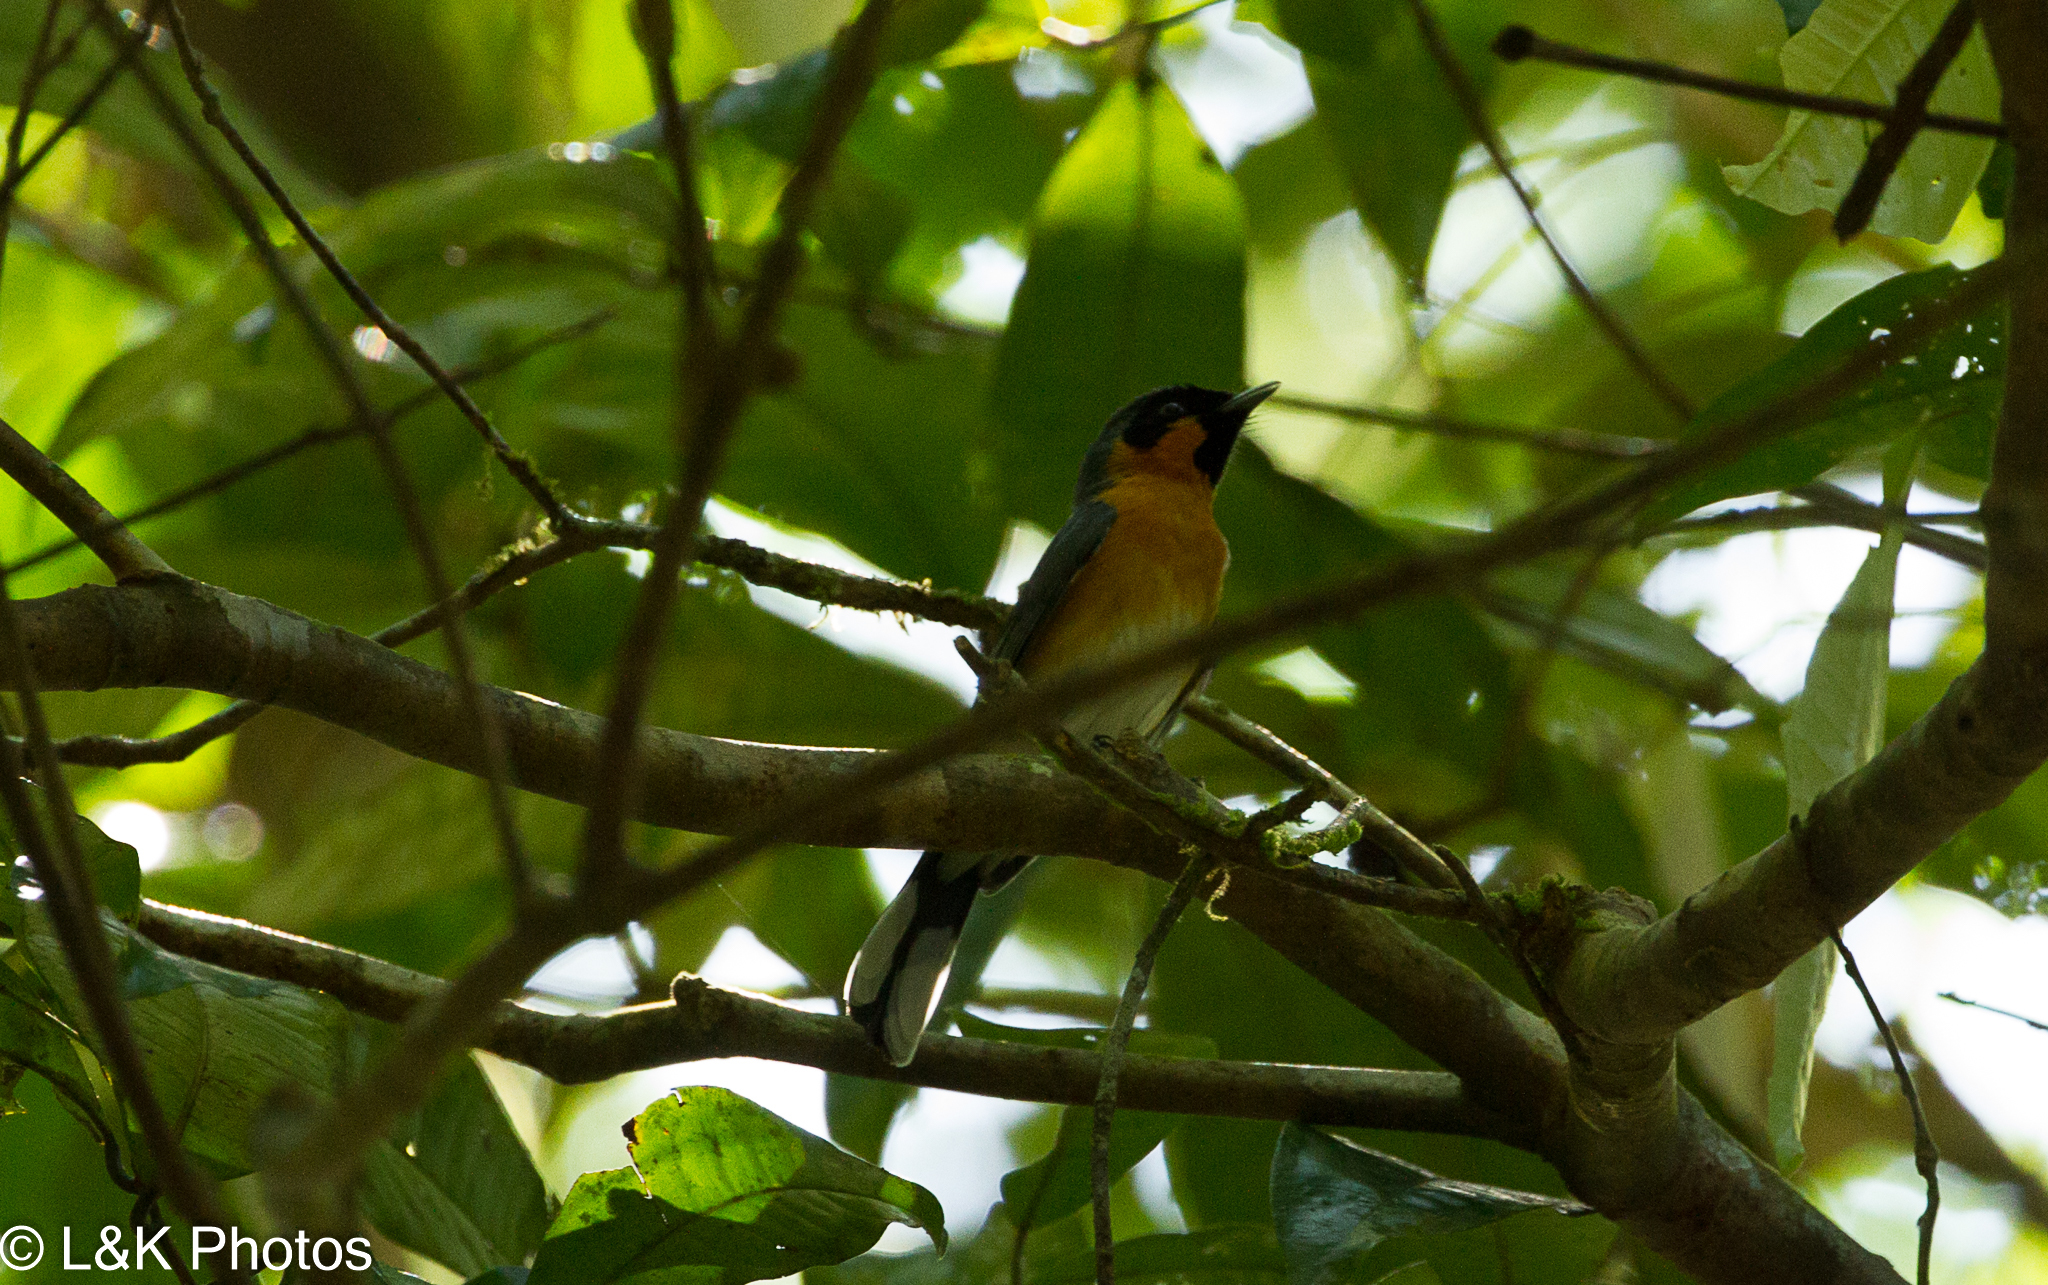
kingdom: Animalia
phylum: Chordata
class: Aves
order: Passeriformes
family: Monarchidae
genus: Symposiachrus
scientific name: Symposiachrus trivirgatus
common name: Spectacled monarch
